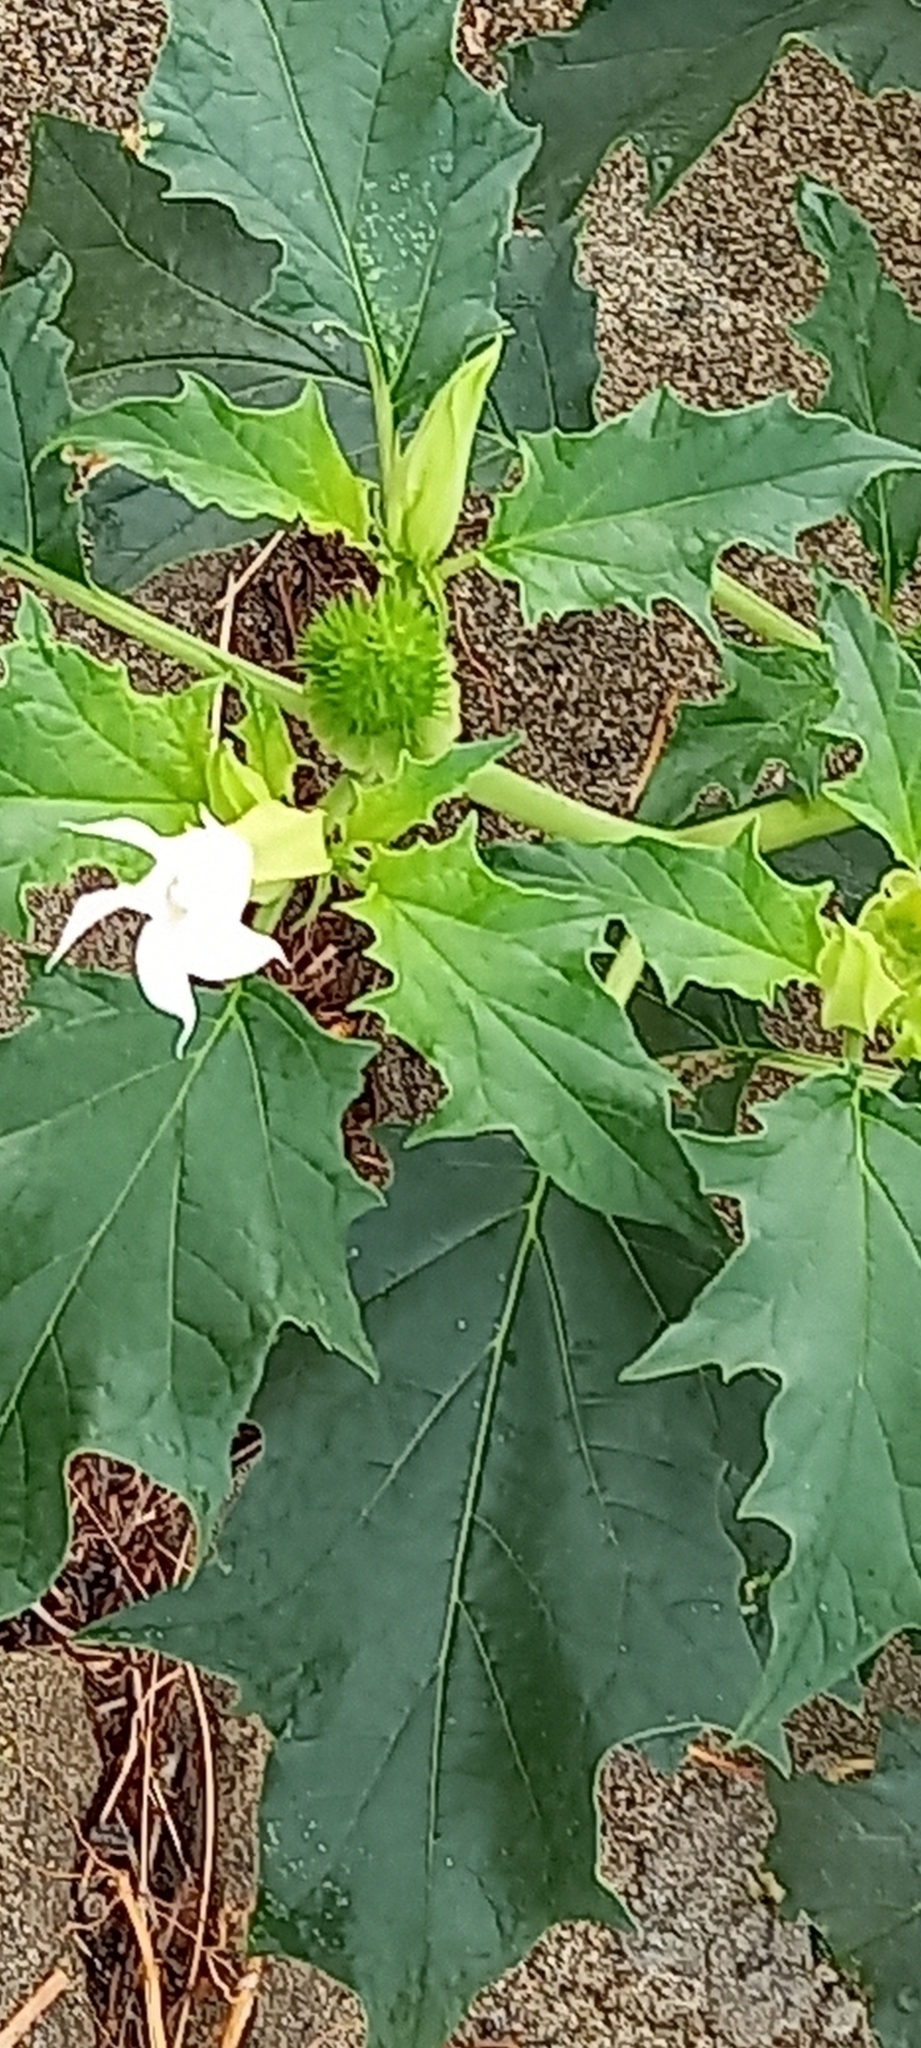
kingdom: Plantae
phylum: Tracheophyta
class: Magnoliopsida
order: Solanales
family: Solanaceae
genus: Datura
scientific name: Datura stramonium
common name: Thorn-apple
